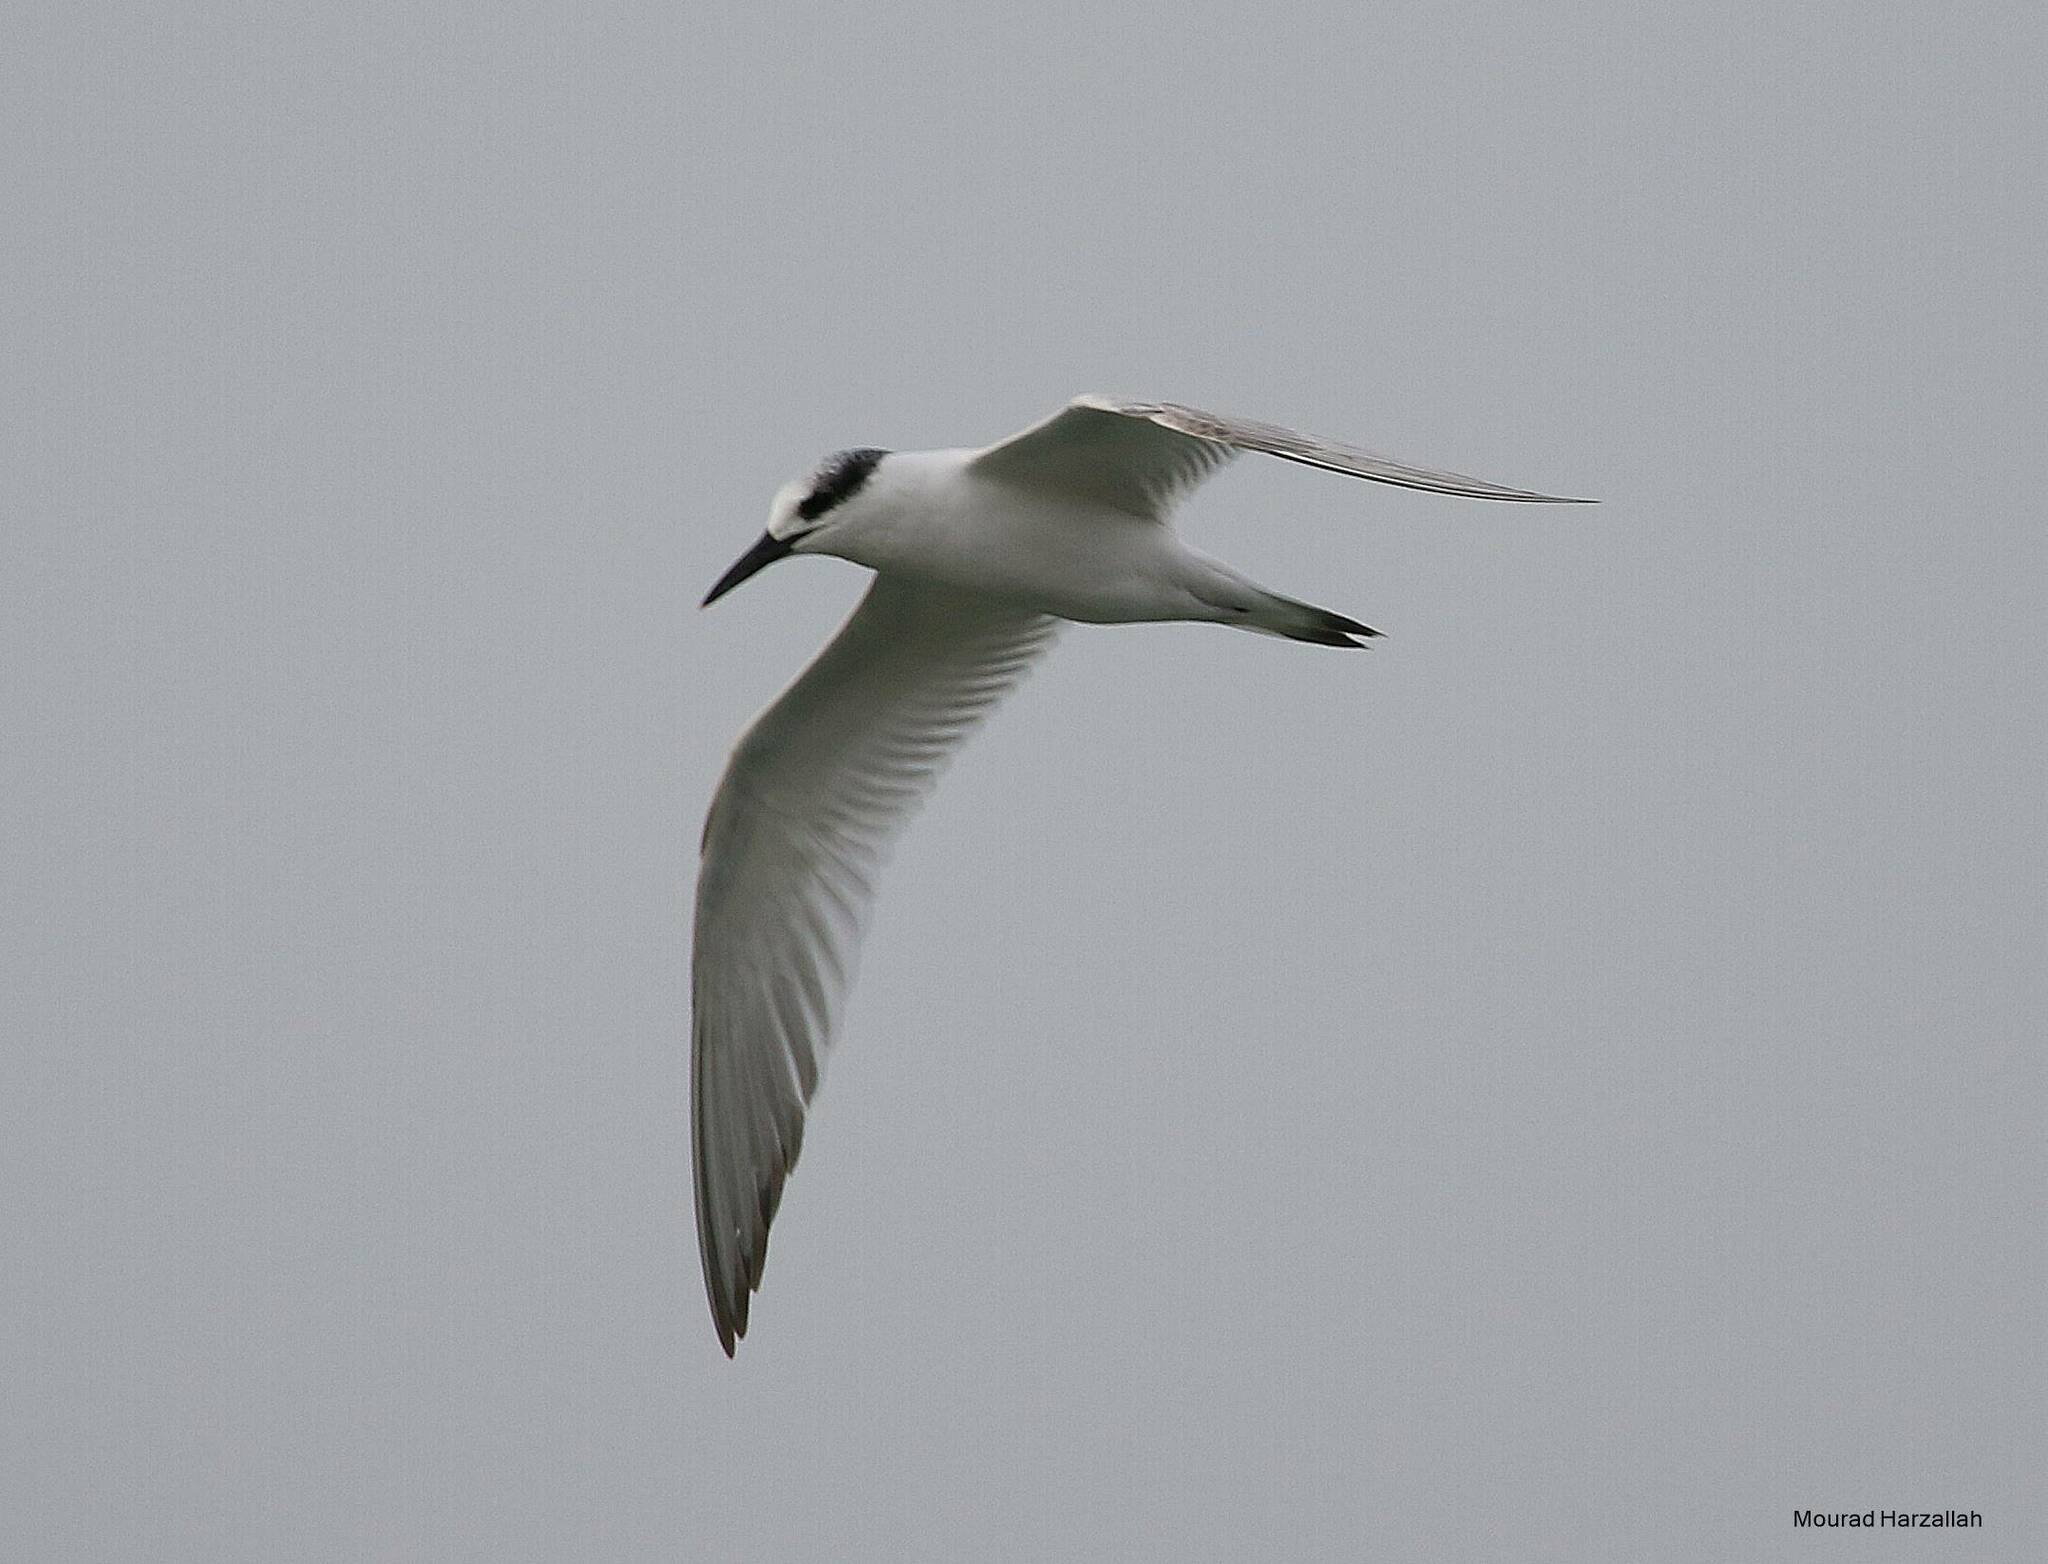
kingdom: Animalia
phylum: Chordata
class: Aves
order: Charadriiformes
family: Laridae
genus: Thalasseus
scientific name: Thalasseus sandvicensis
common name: Sandwich tern
